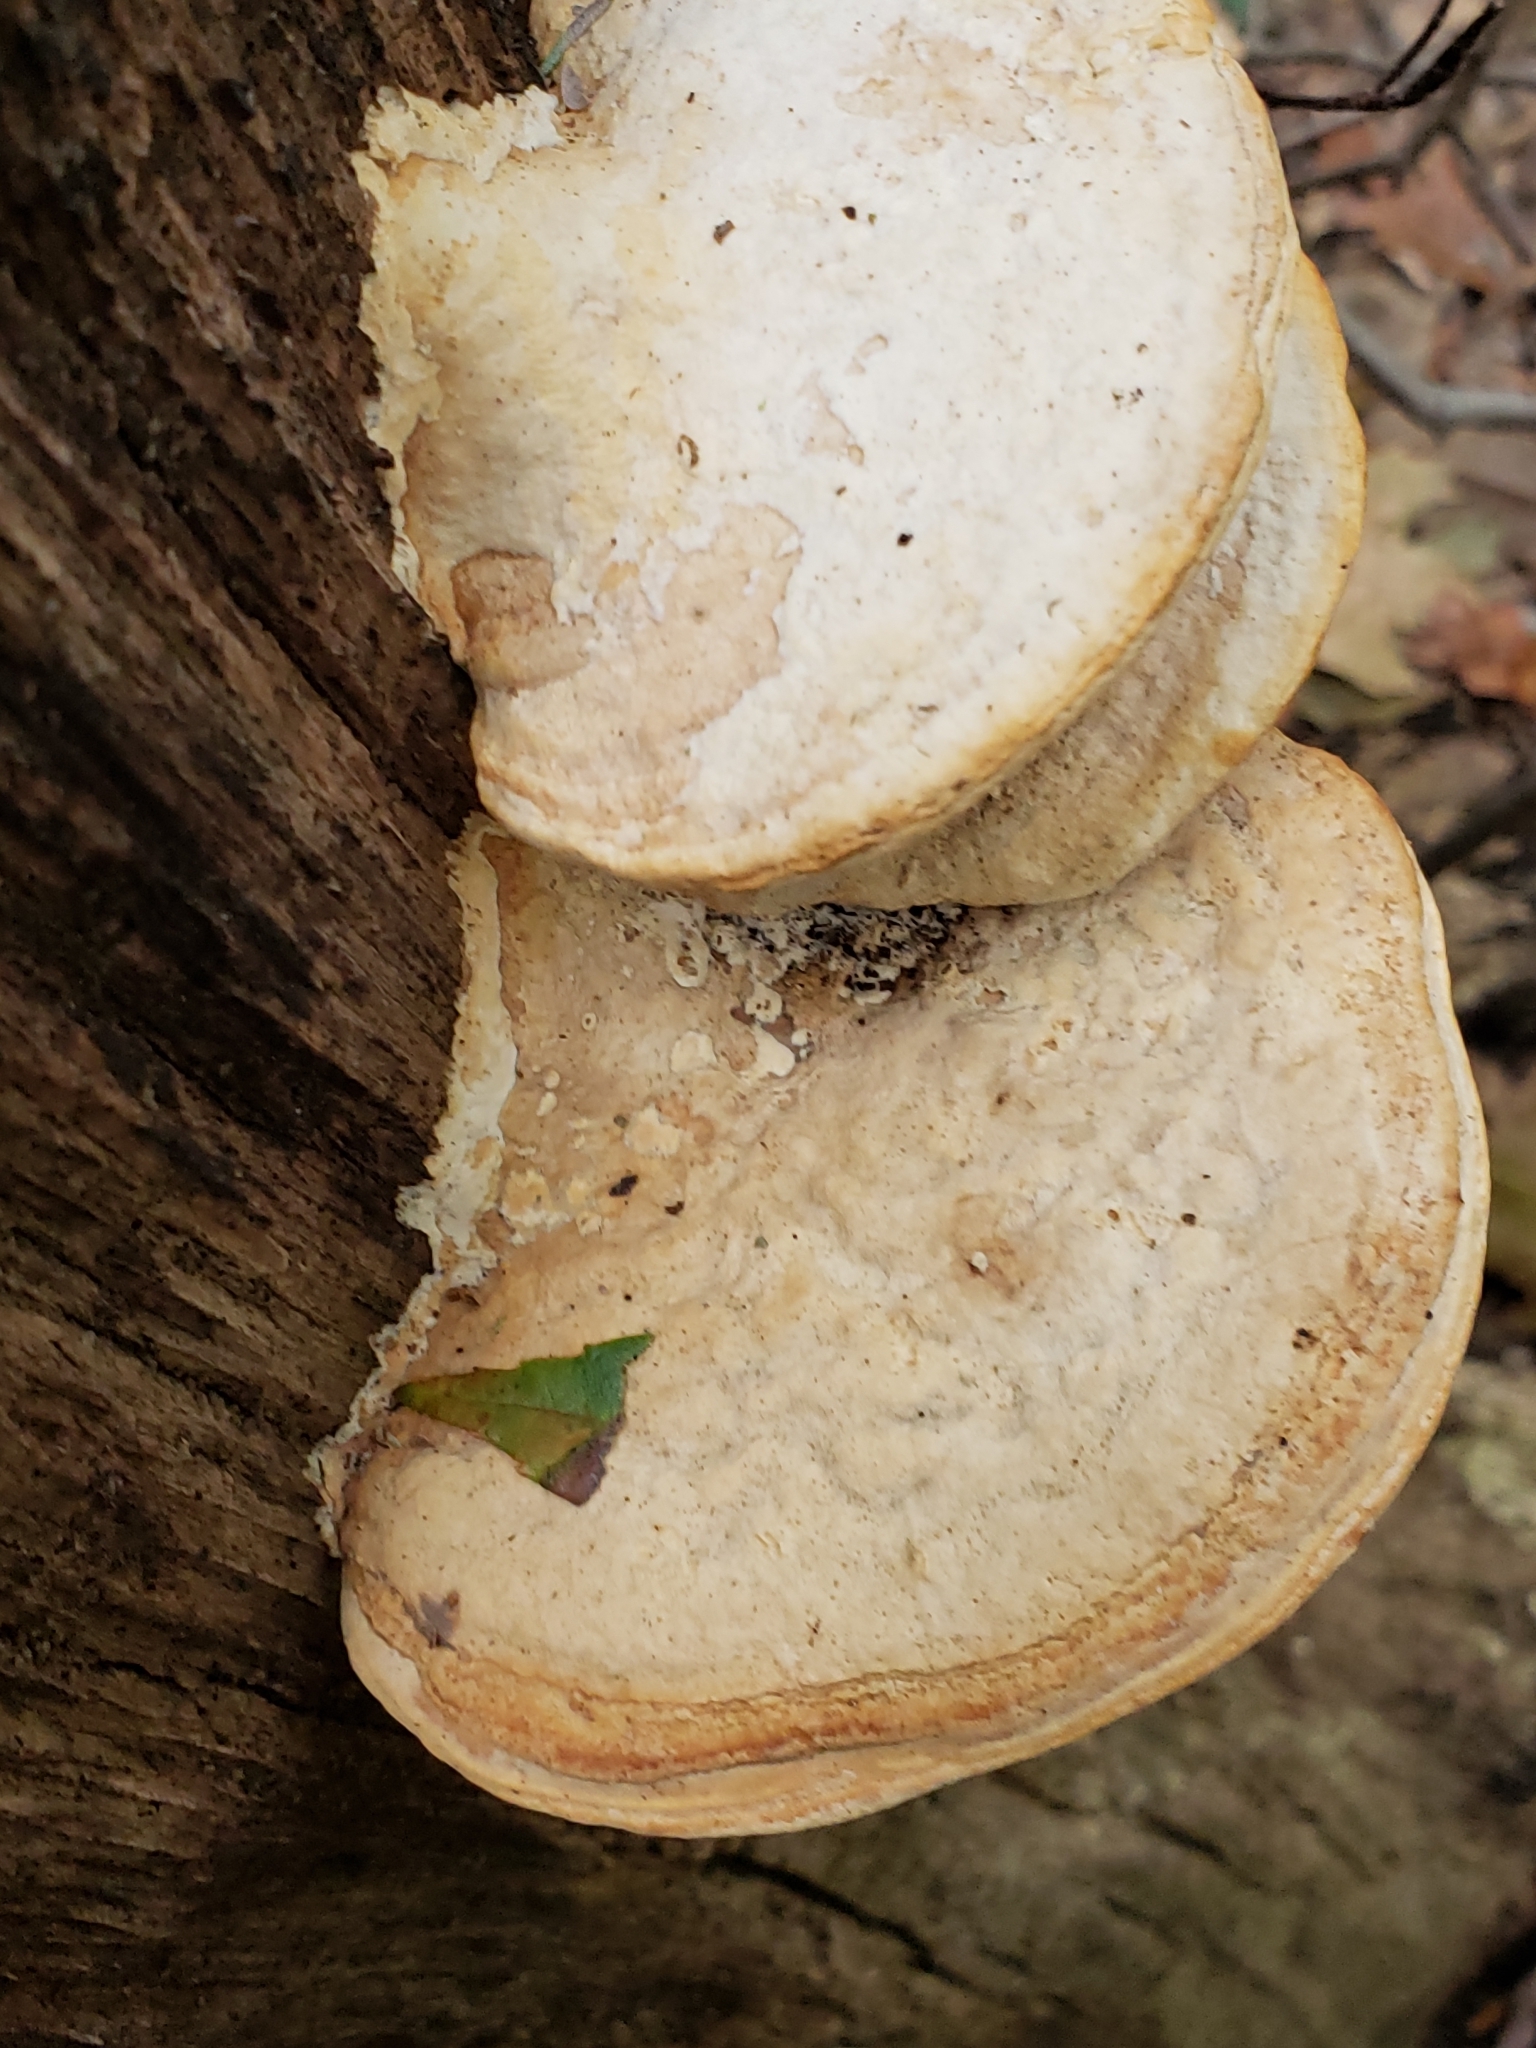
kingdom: Fungi
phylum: Basidiomycota
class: Agaricomycetes
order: Polyporales
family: Fomitopsidaceae
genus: Fomitopsis
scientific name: Fomitopsis
